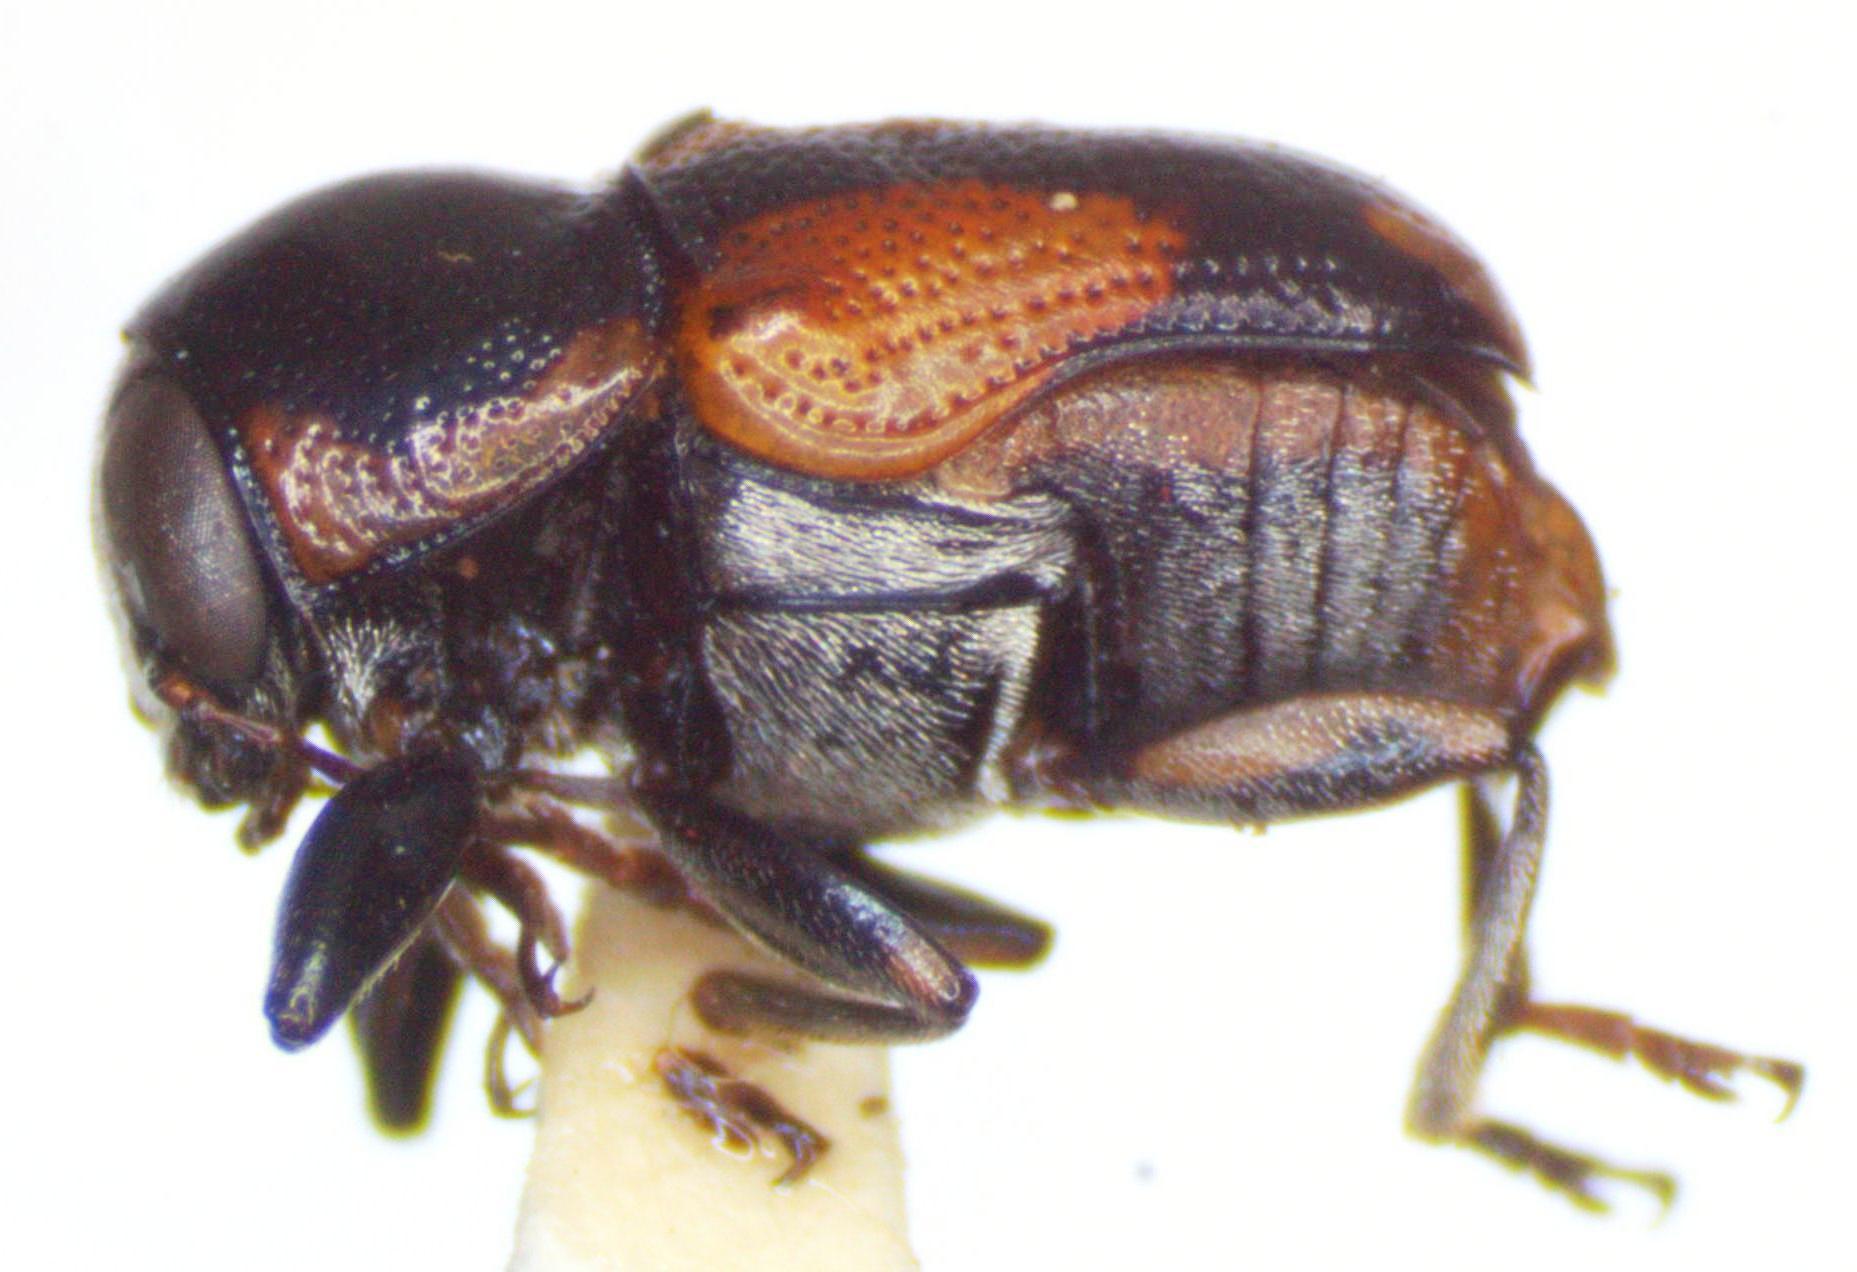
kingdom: Animalia
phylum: Arthropoda
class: Insecta
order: Coleoptera
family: Chrysomelidae
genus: Metallactus
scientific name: Metallactus multicolor
